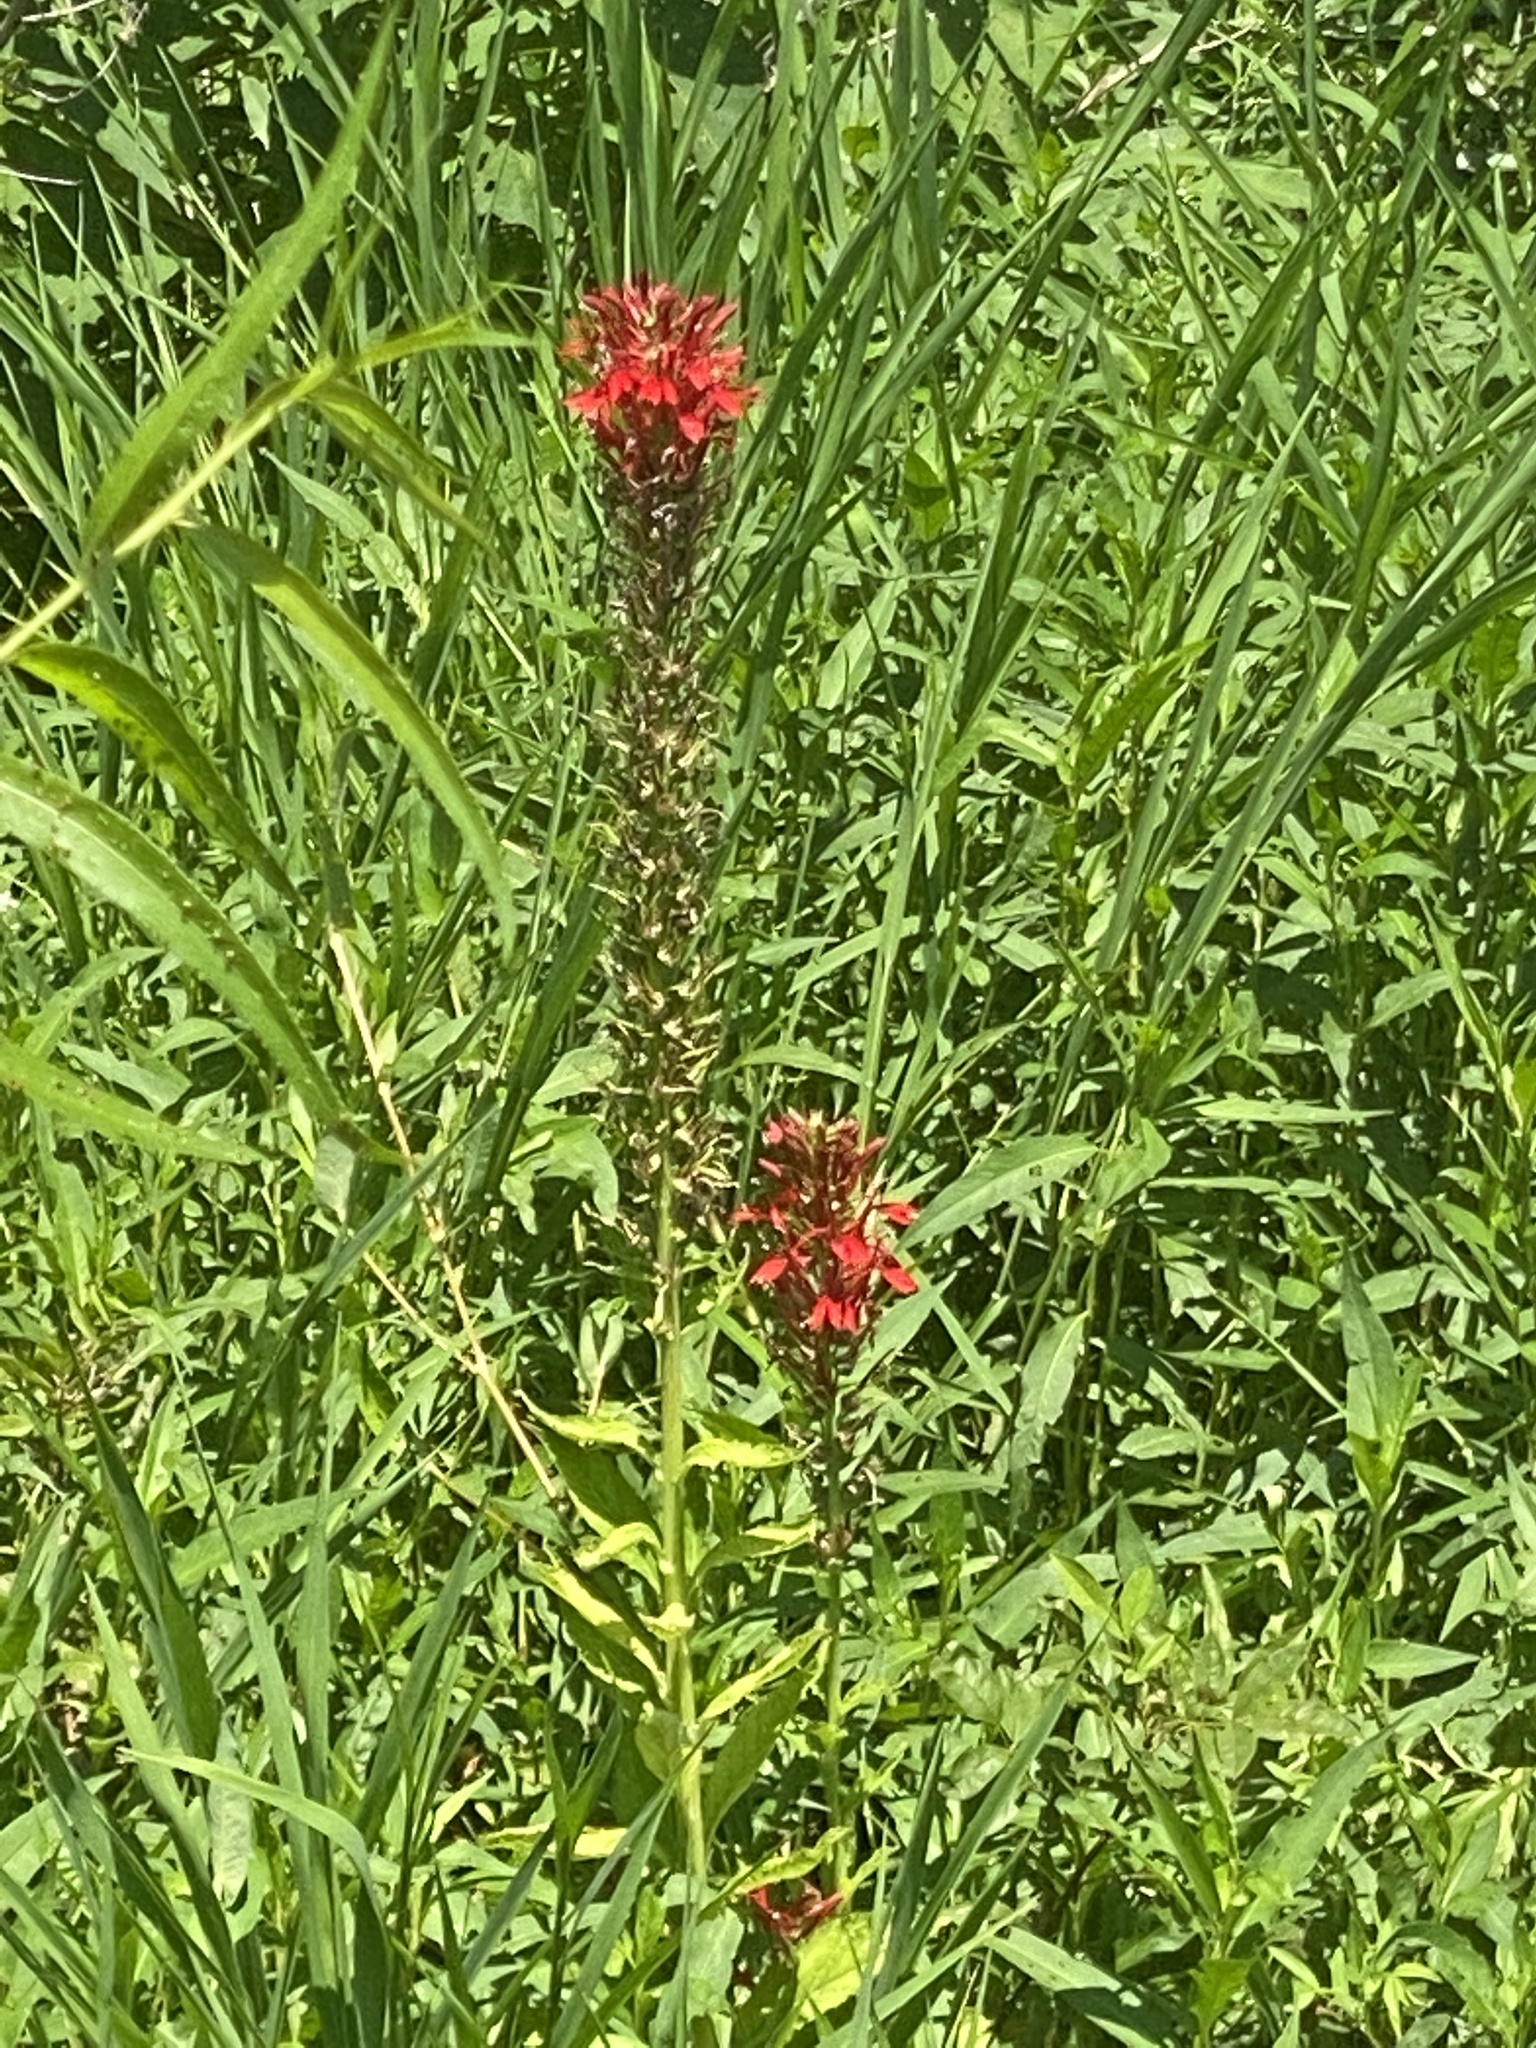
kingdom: Plantae
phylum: Tracheophyta
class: Magnoliopsida
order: Asterales
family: Campanulaceae
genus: Lobelia
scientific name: Lobelia cardinalis
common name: Cardinal flower
